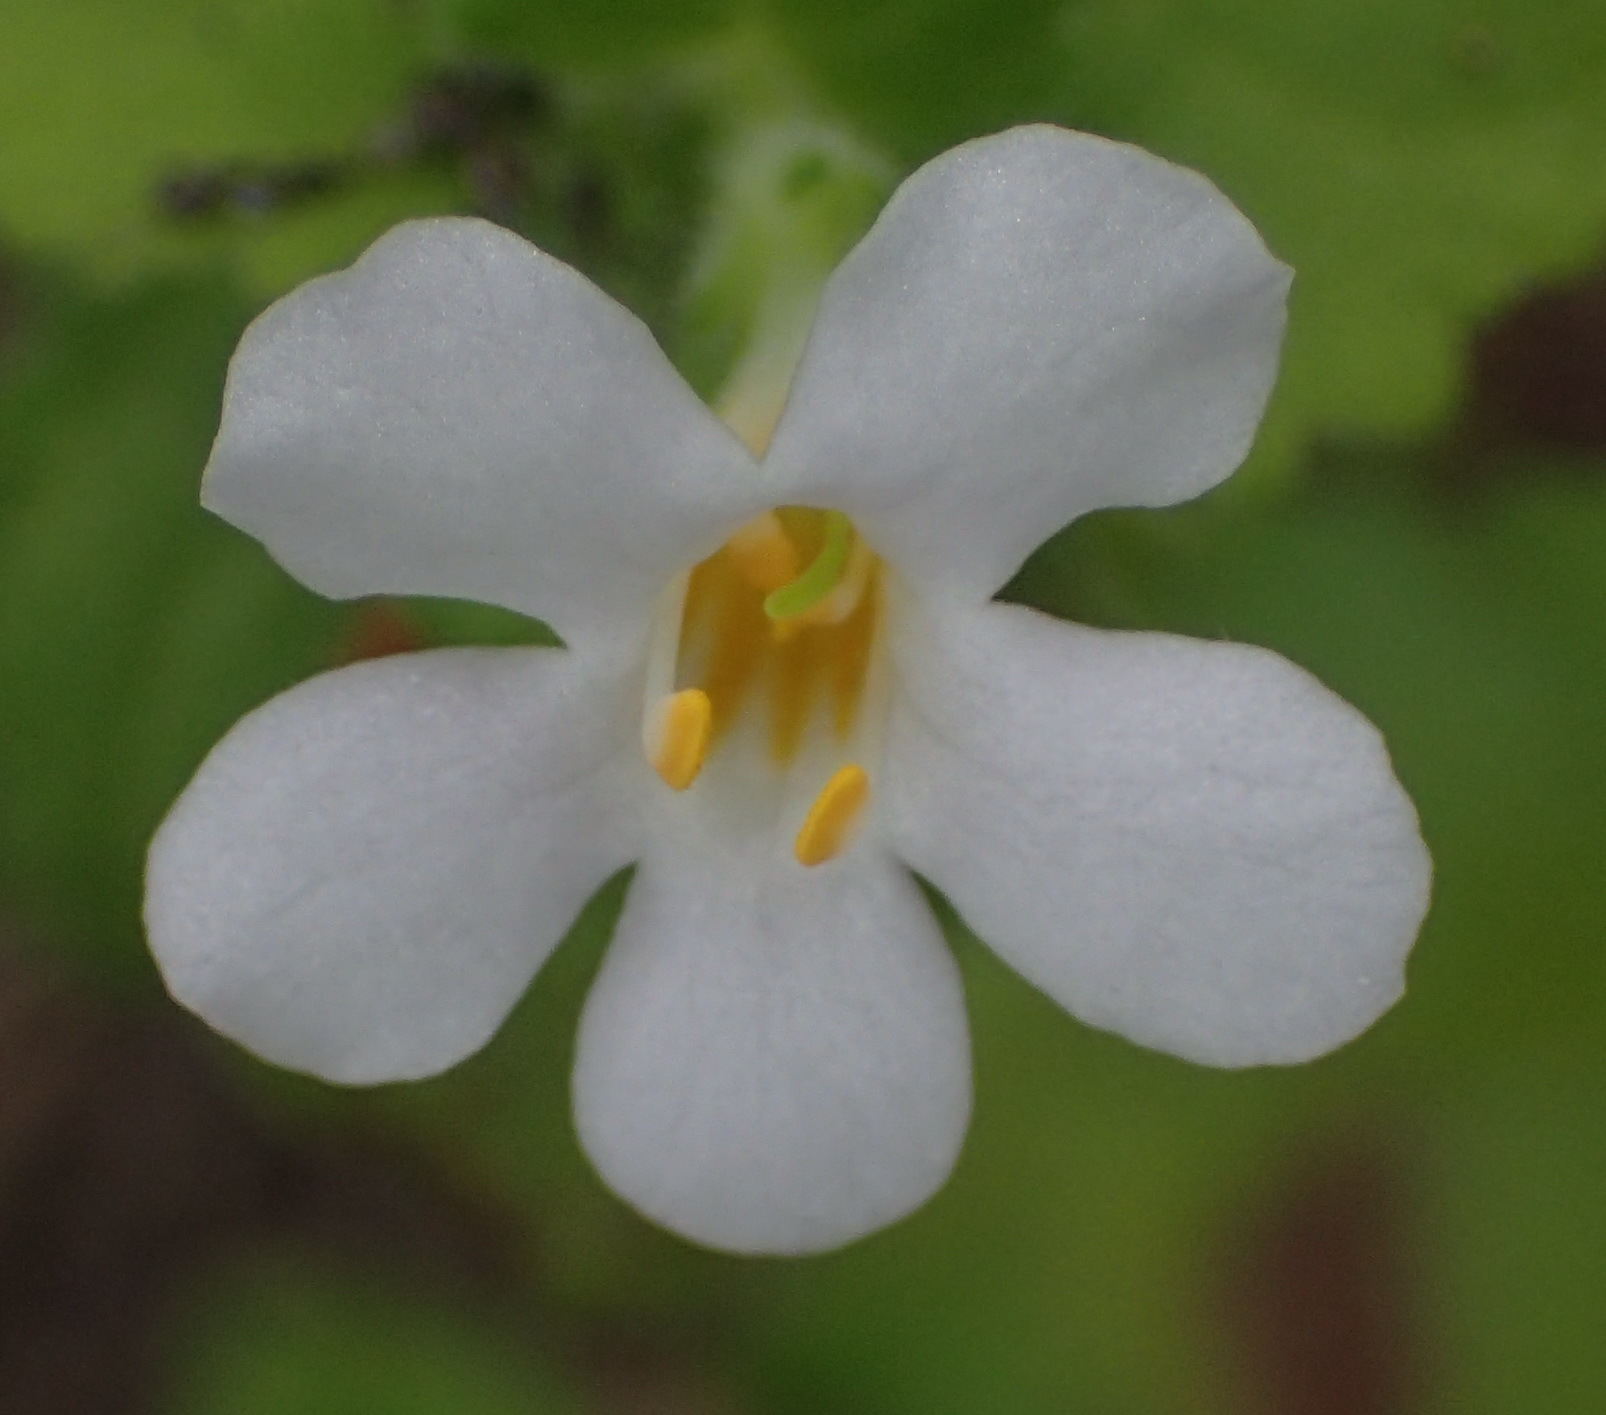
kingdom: Plantae
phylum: Tracheophyta
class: Magnoliopsida
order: Lamiales
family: Scrophulariaceae
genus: Chaenostoma
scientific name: Chaenostoma cordatum
